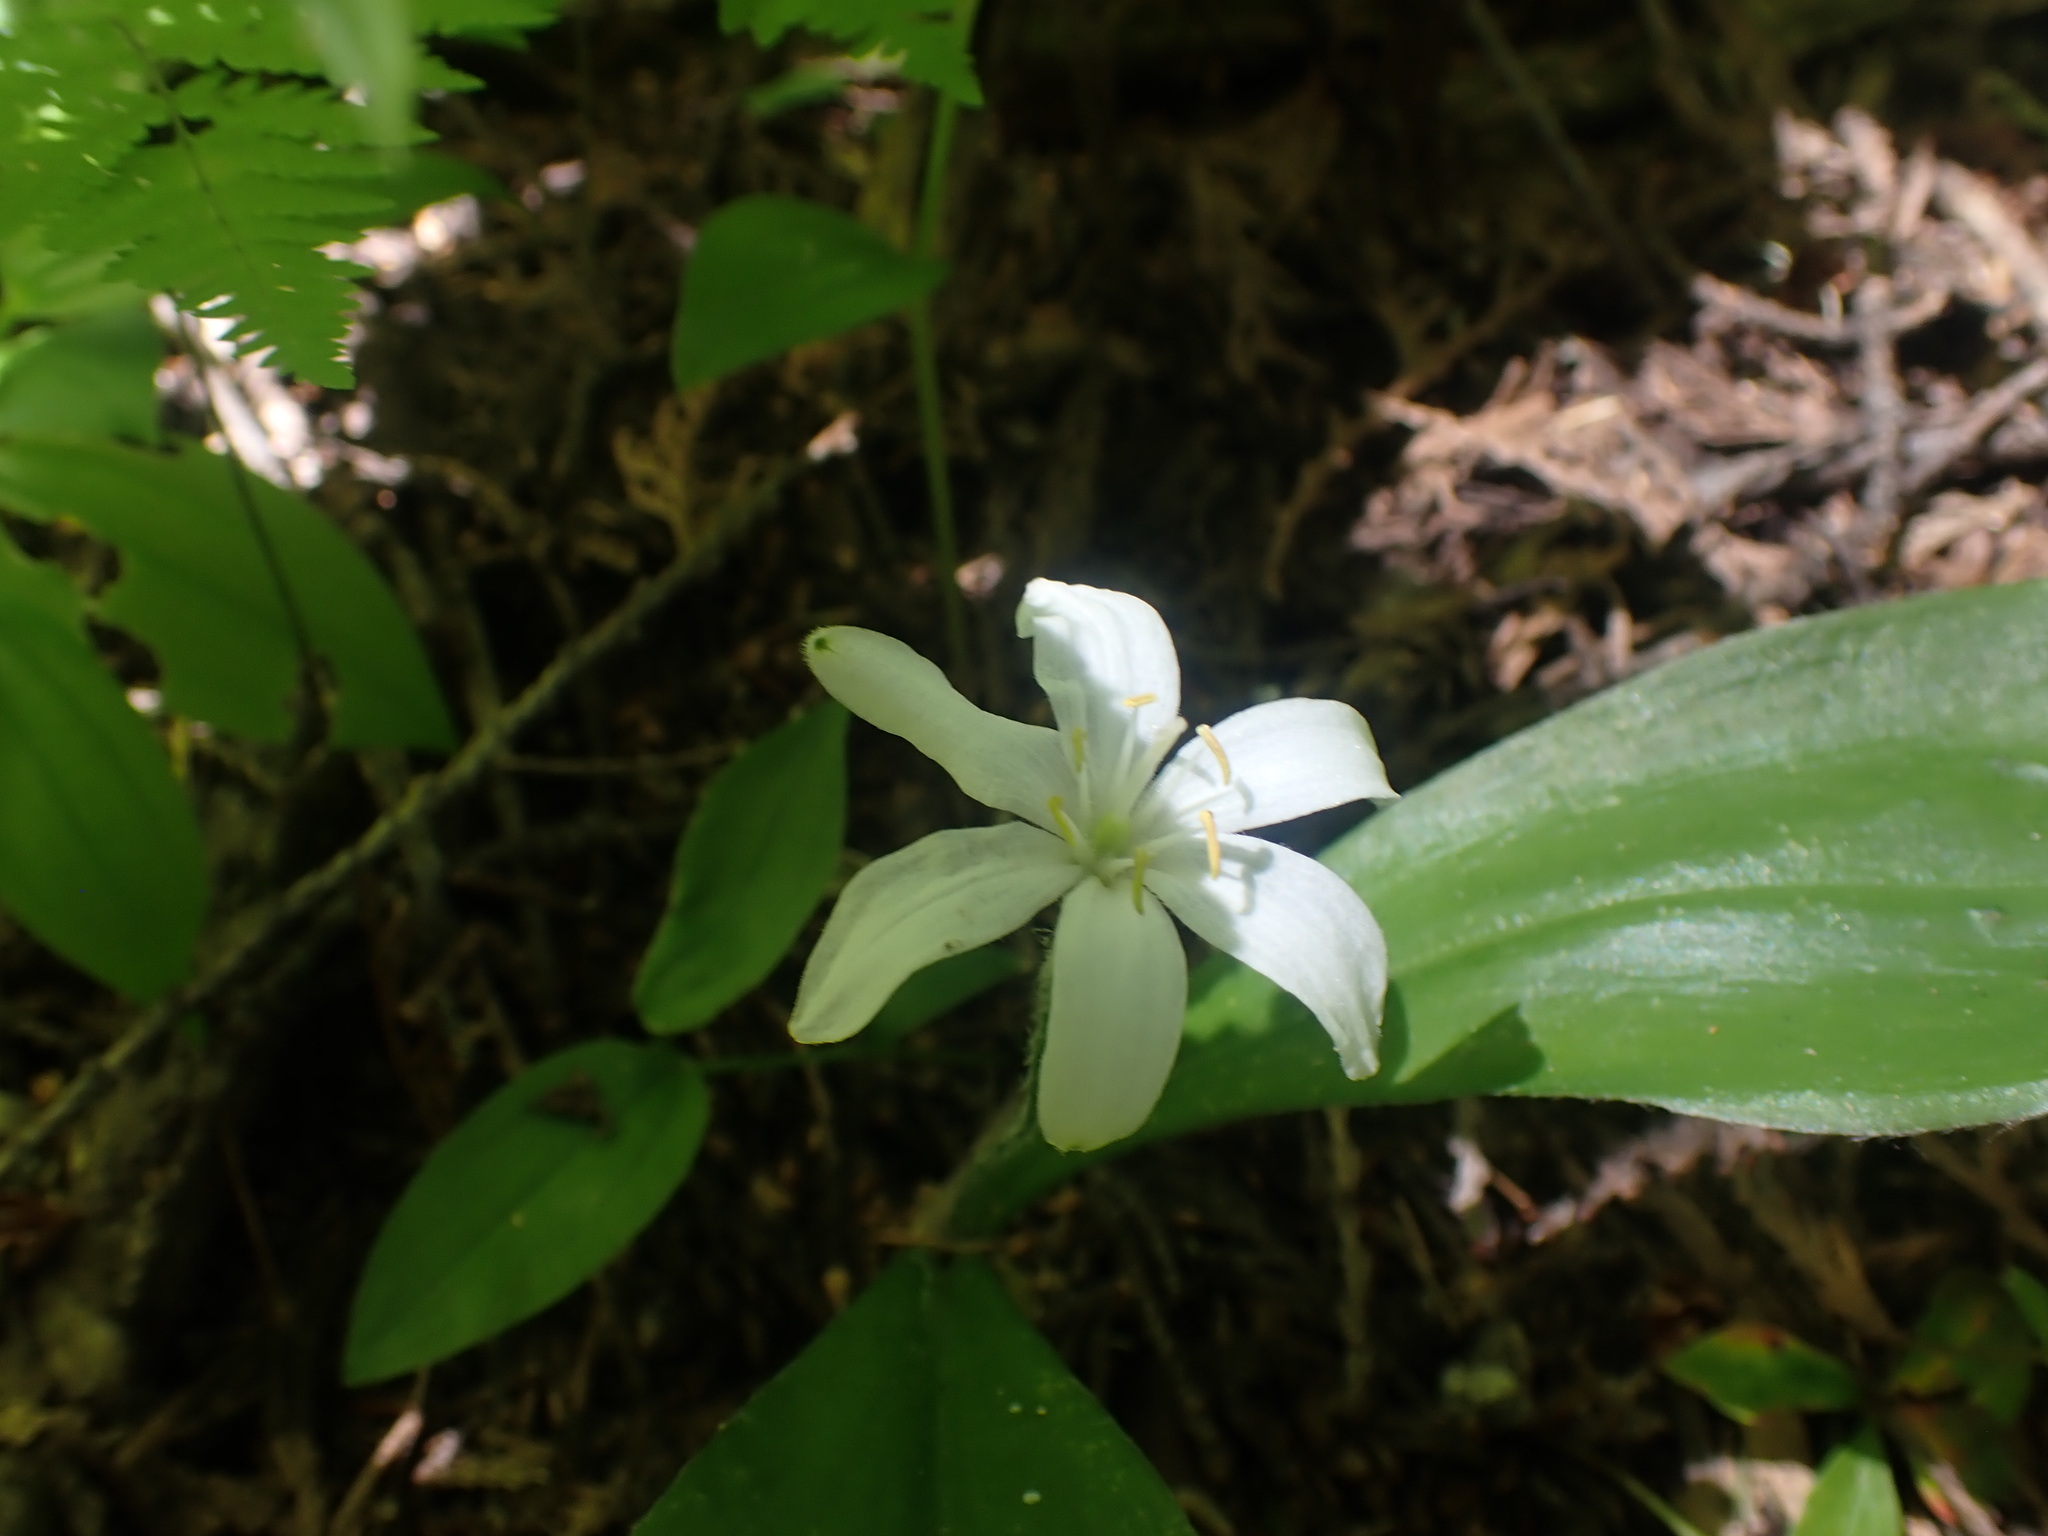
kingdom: Plantae
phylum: Tracheophyta
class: Liliopsida
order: Liliales
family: Liliaceae
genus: Clintonia
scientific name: Clintonia uniflora
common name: Queen's cup
